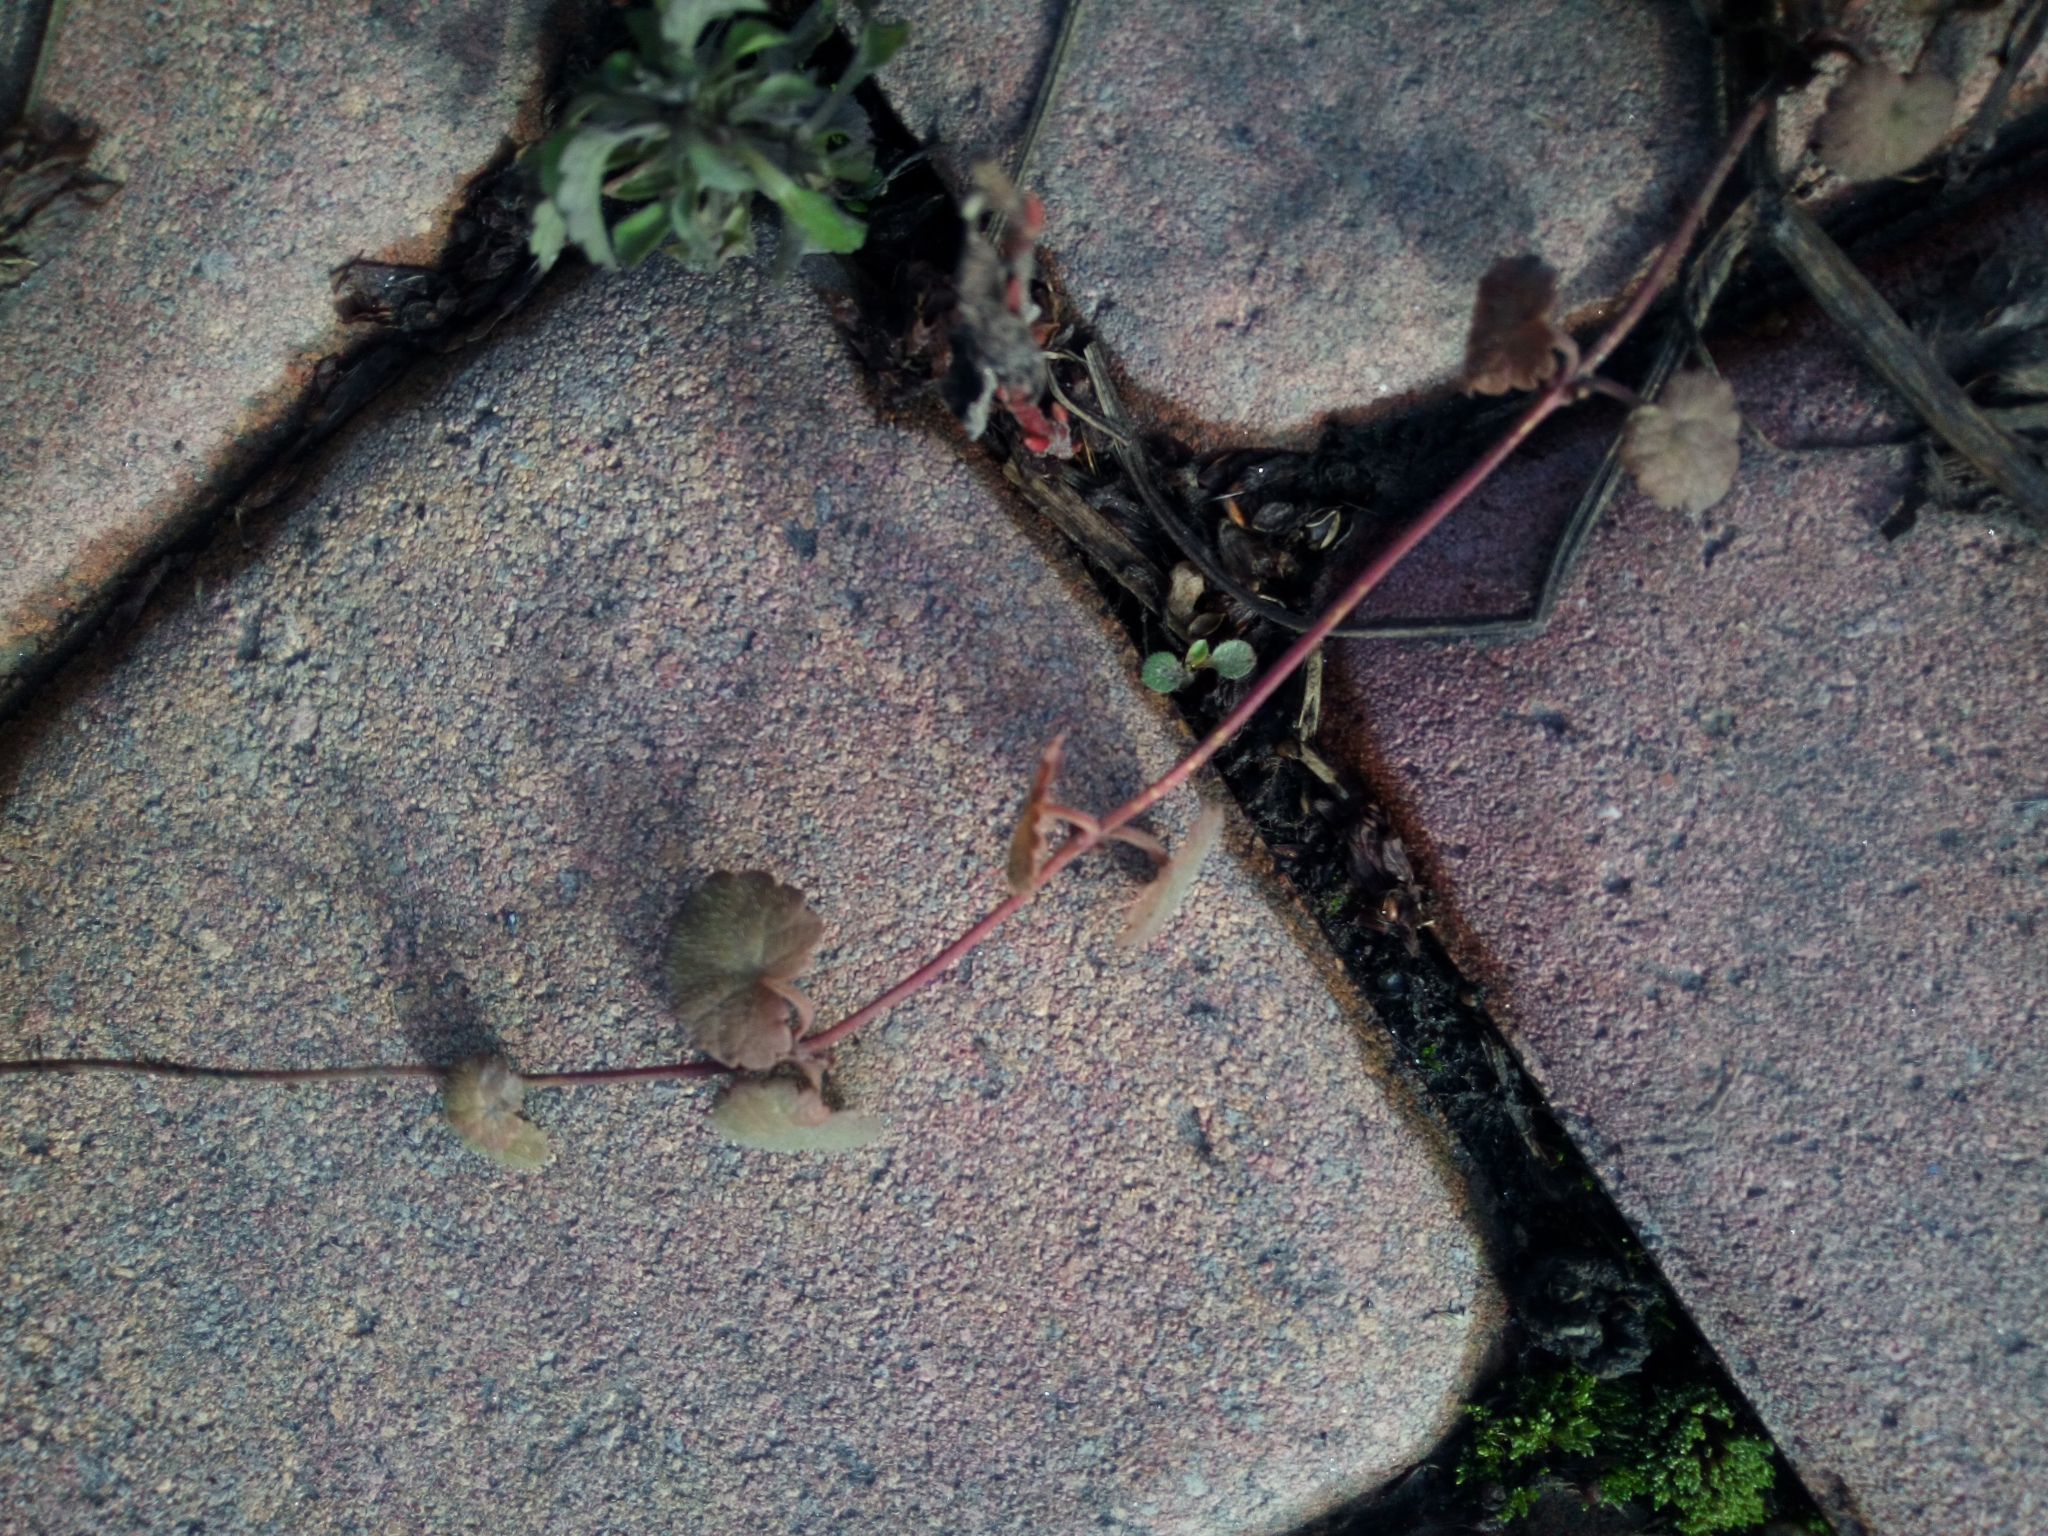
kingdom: Plantae
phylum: Tracheophyta
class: Magnoliopsida
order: Lamiales
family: Lamiaceae
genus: Glechoma
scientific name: Glechoma hederacea
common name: Ground ivy
